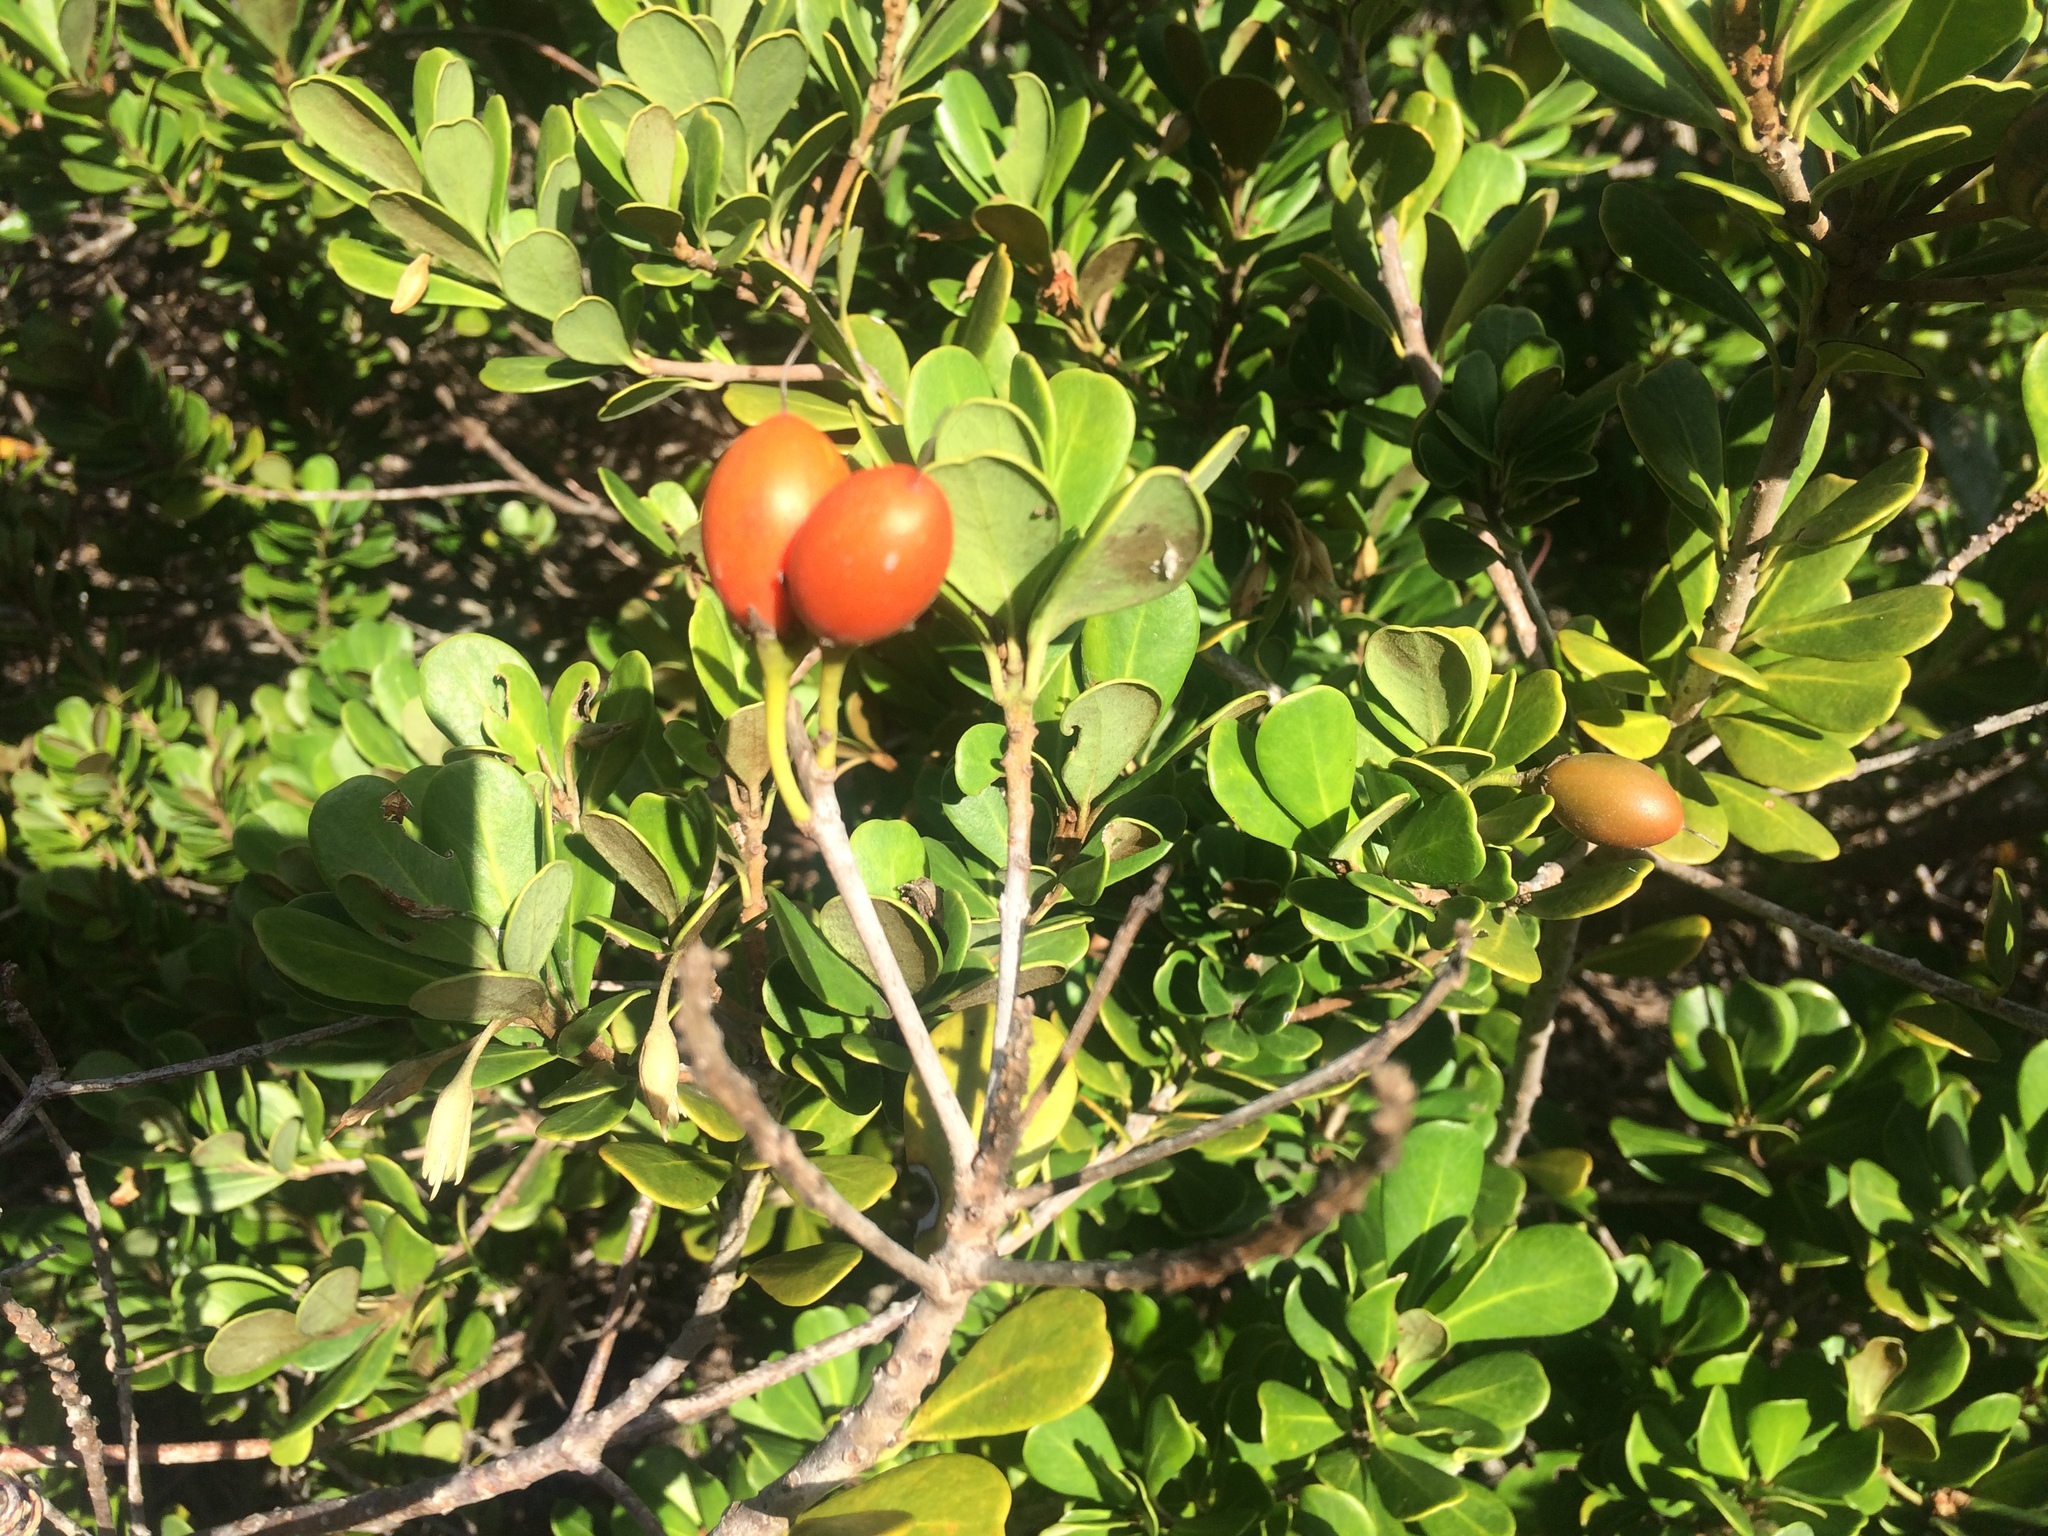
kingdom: Plantae
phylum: Tracheophyta
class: Magnoliopsida
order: Ericales
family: Sapotaceae
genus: Mimusops
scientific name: Mimusops caffra
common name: Coastal red milkwood
